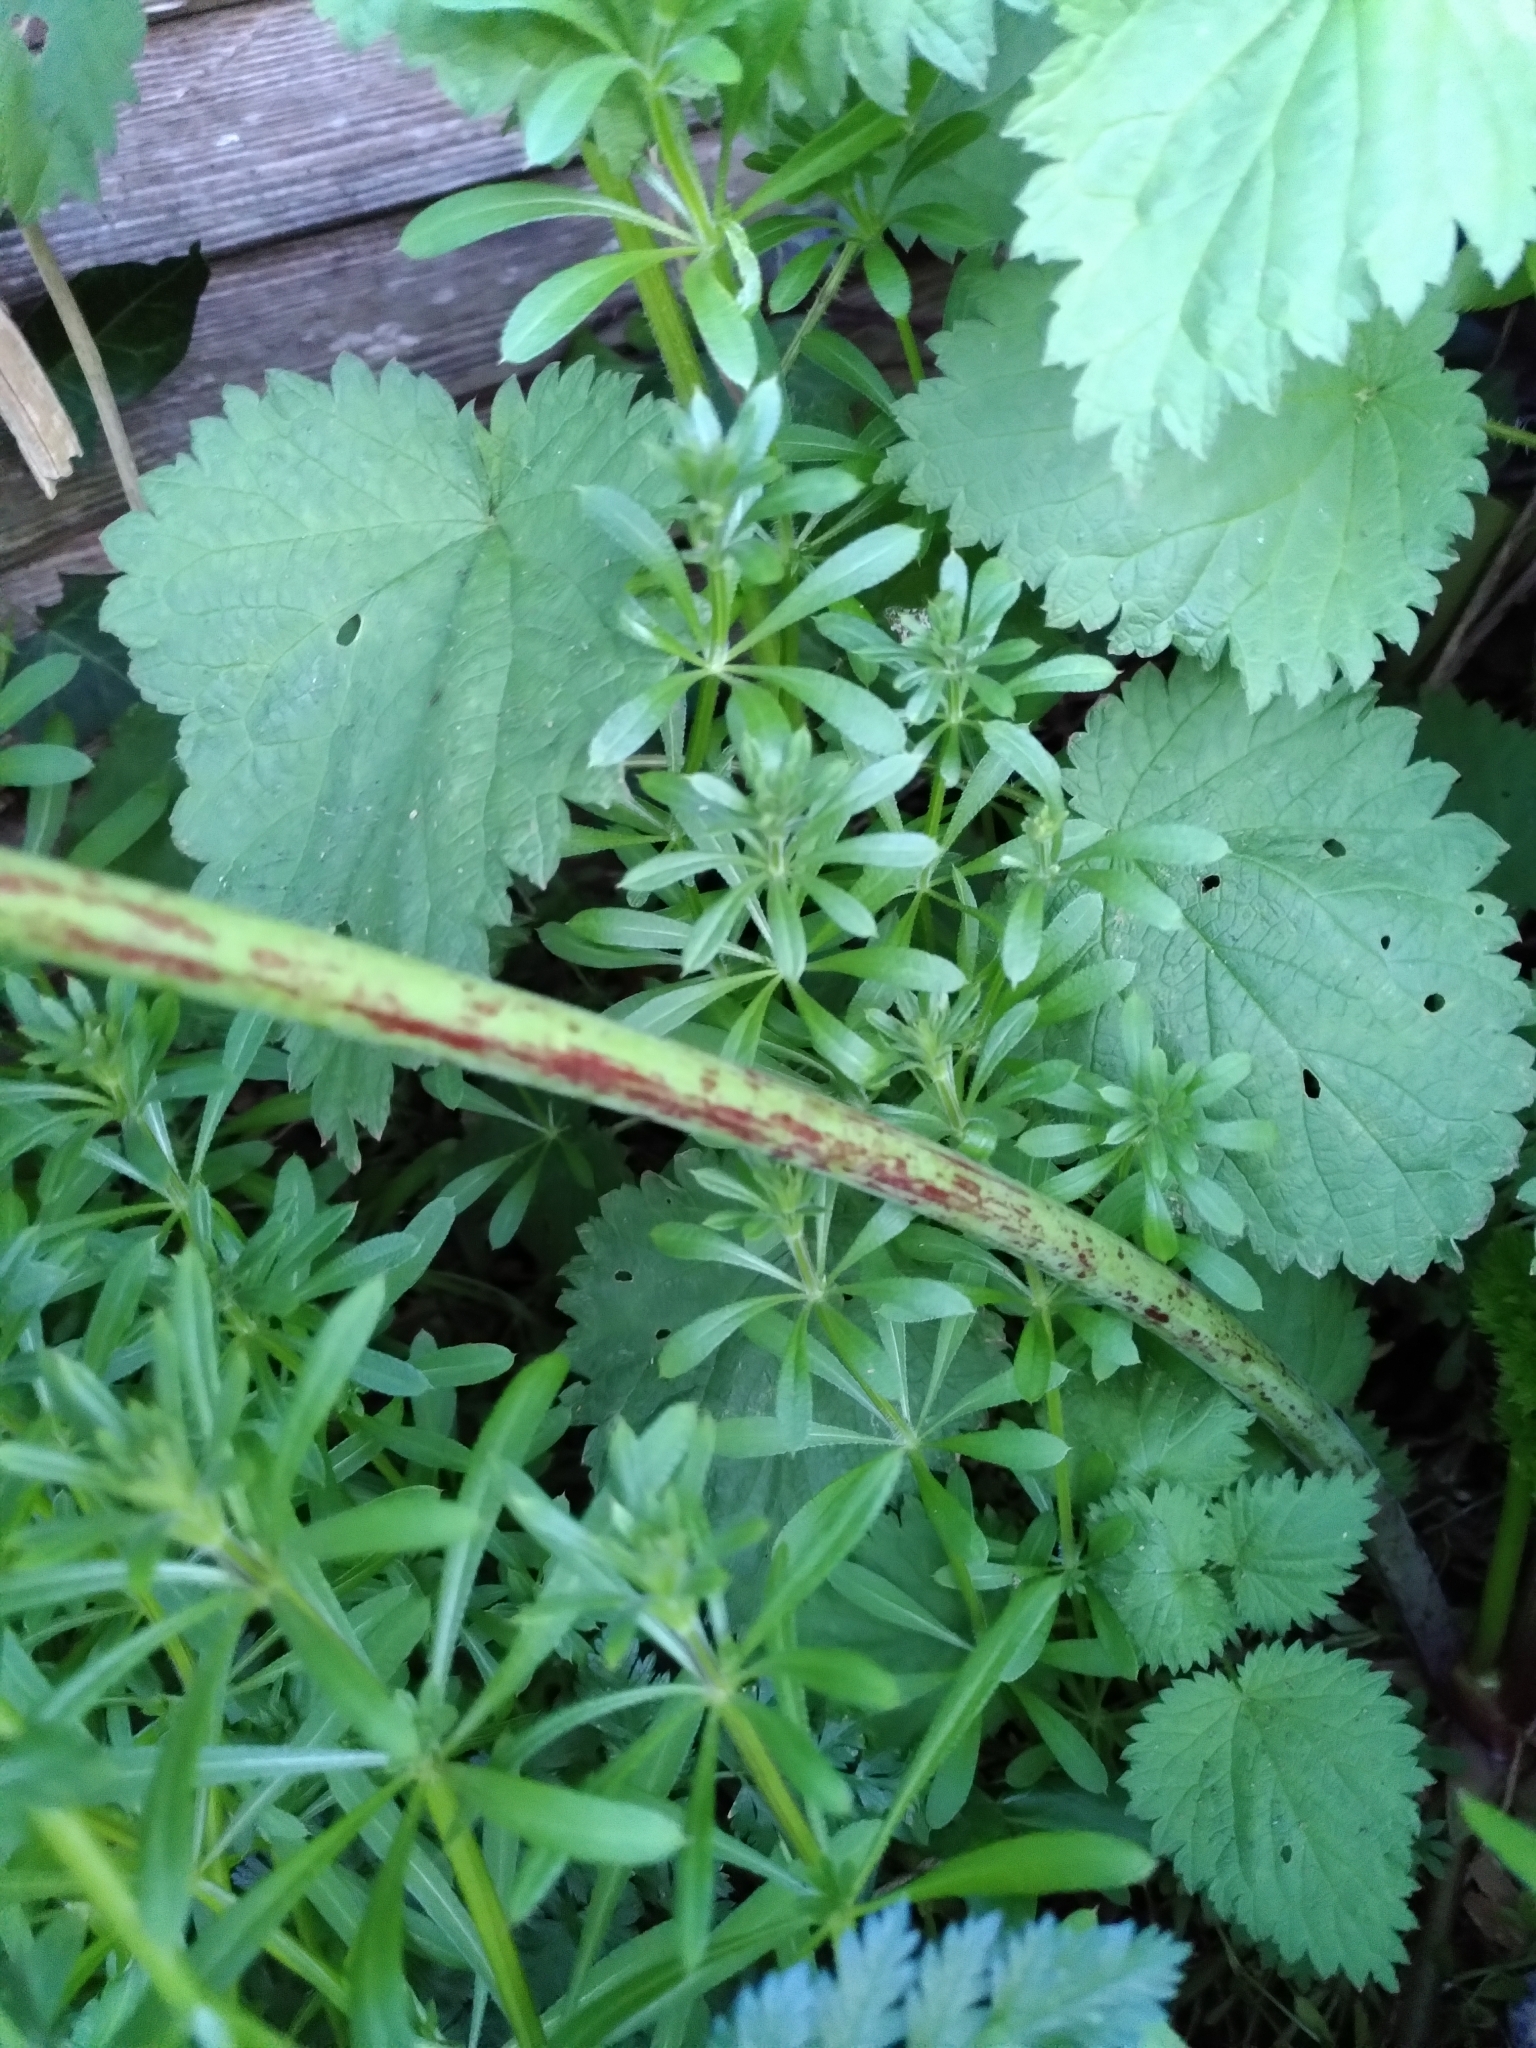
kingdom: Plantae
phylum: Tracheophyta
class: Magnoliopsida
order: Apiales
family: Apiaceae
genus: Conium
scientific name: Conium maculatum
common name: Hemlock
